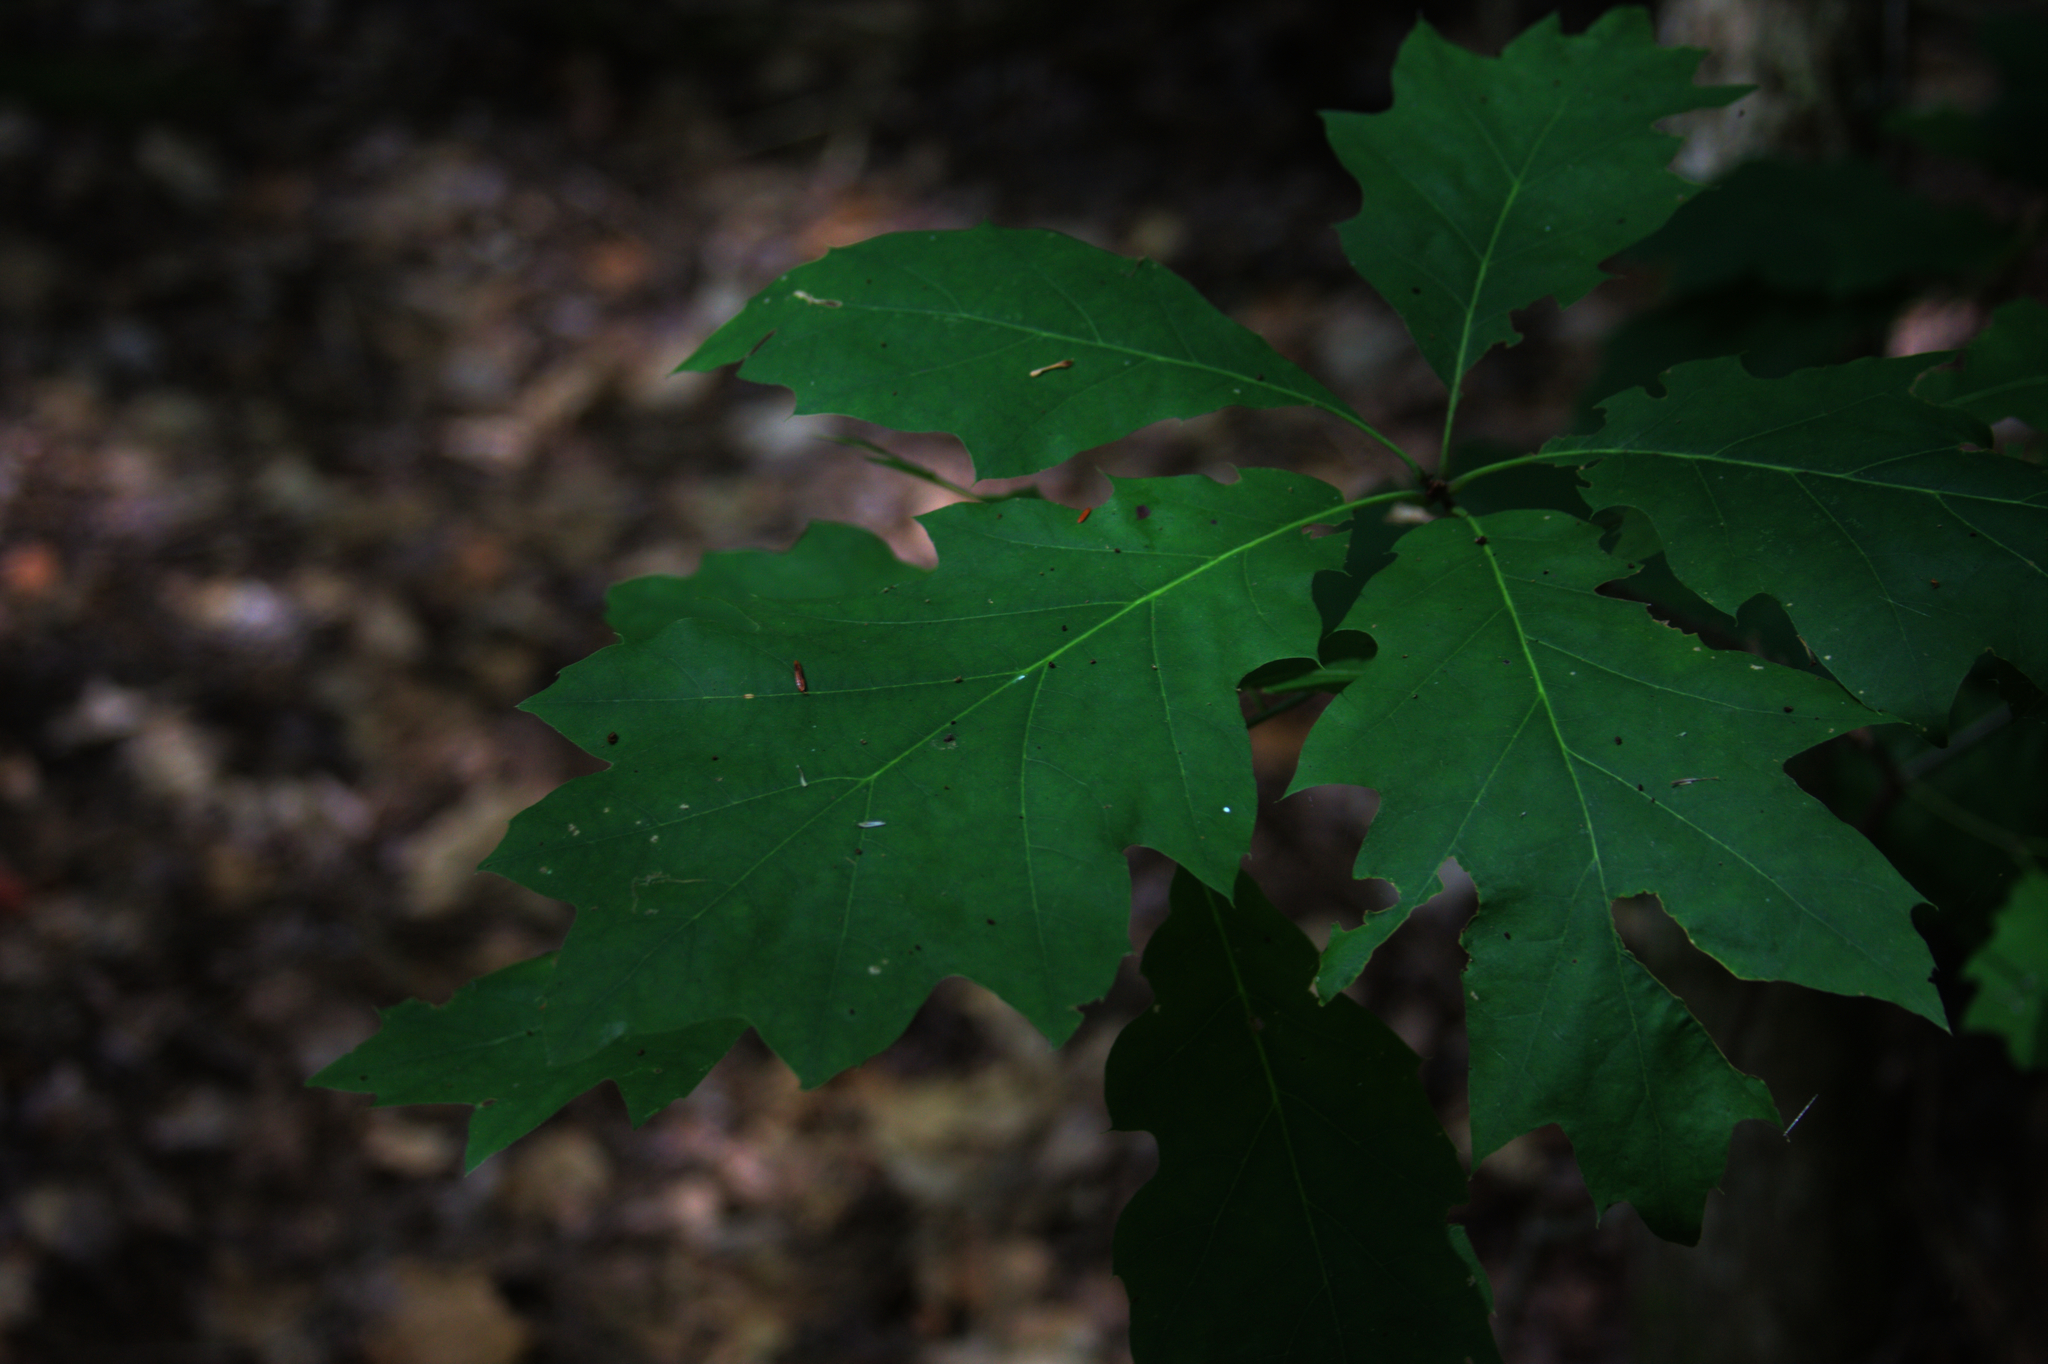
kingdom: Plantae
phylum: Tracheophyta
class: Magnoliopsida
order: Fagales
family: Fagaceae
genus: Quercus
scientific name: Quercus rubra
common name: Red oak
